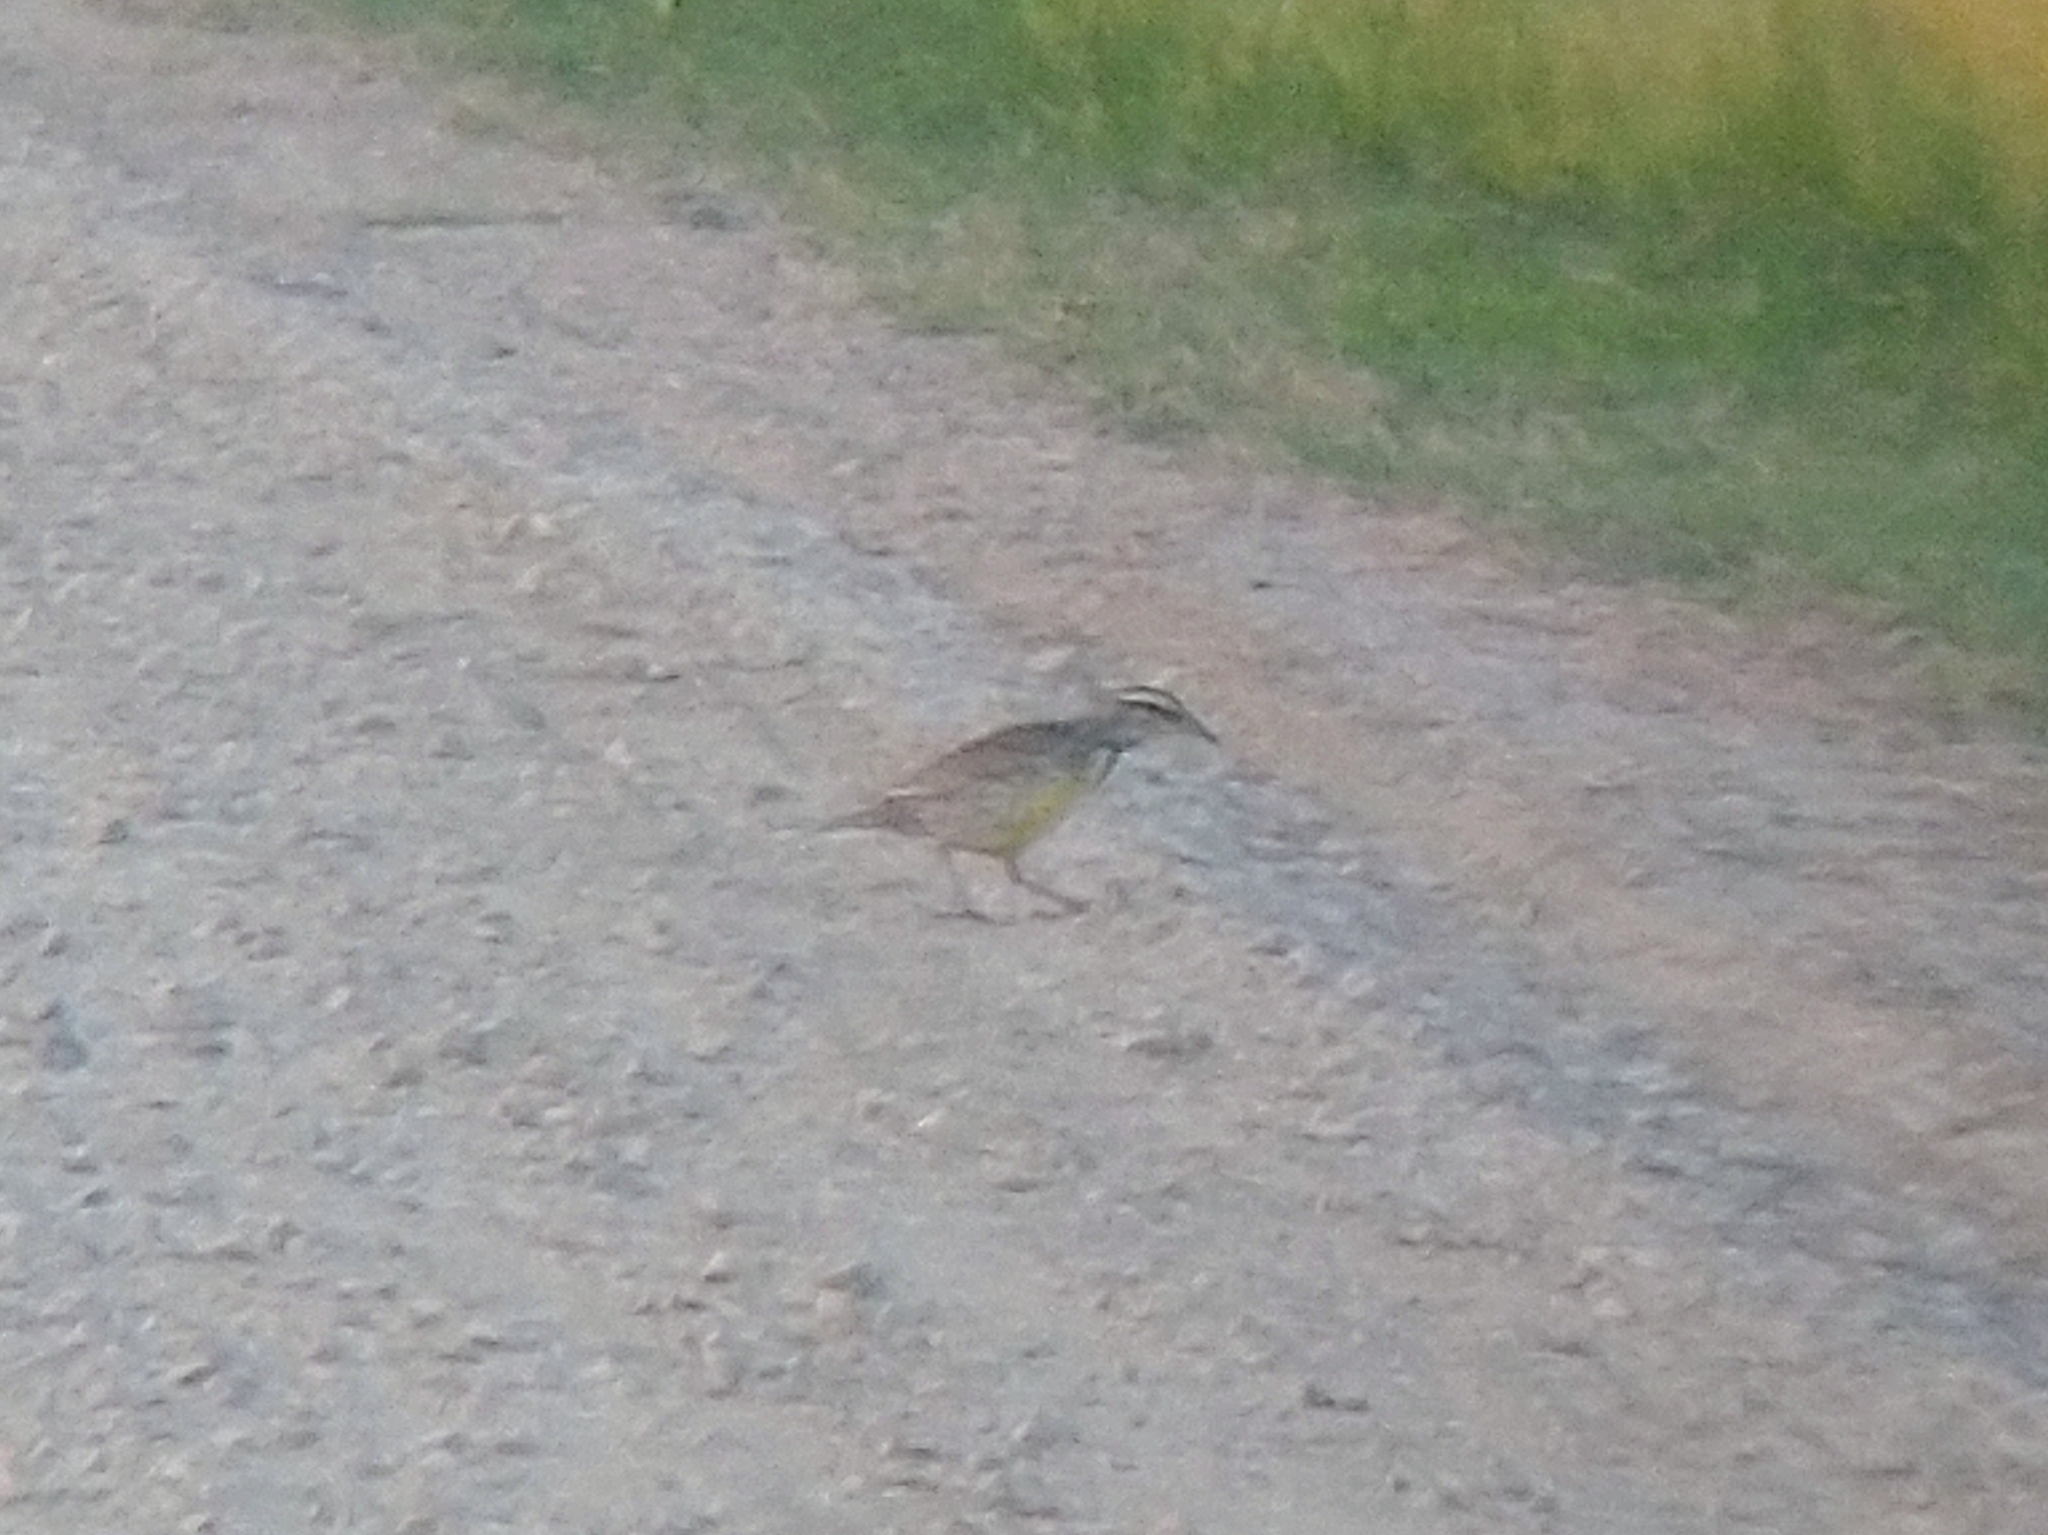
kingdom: Animalia
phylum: Chordata
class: Aves
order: Passeriformes
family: Icteridae
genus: Sturnella
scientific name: Sturnella neglecta
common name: Western meadowlark
